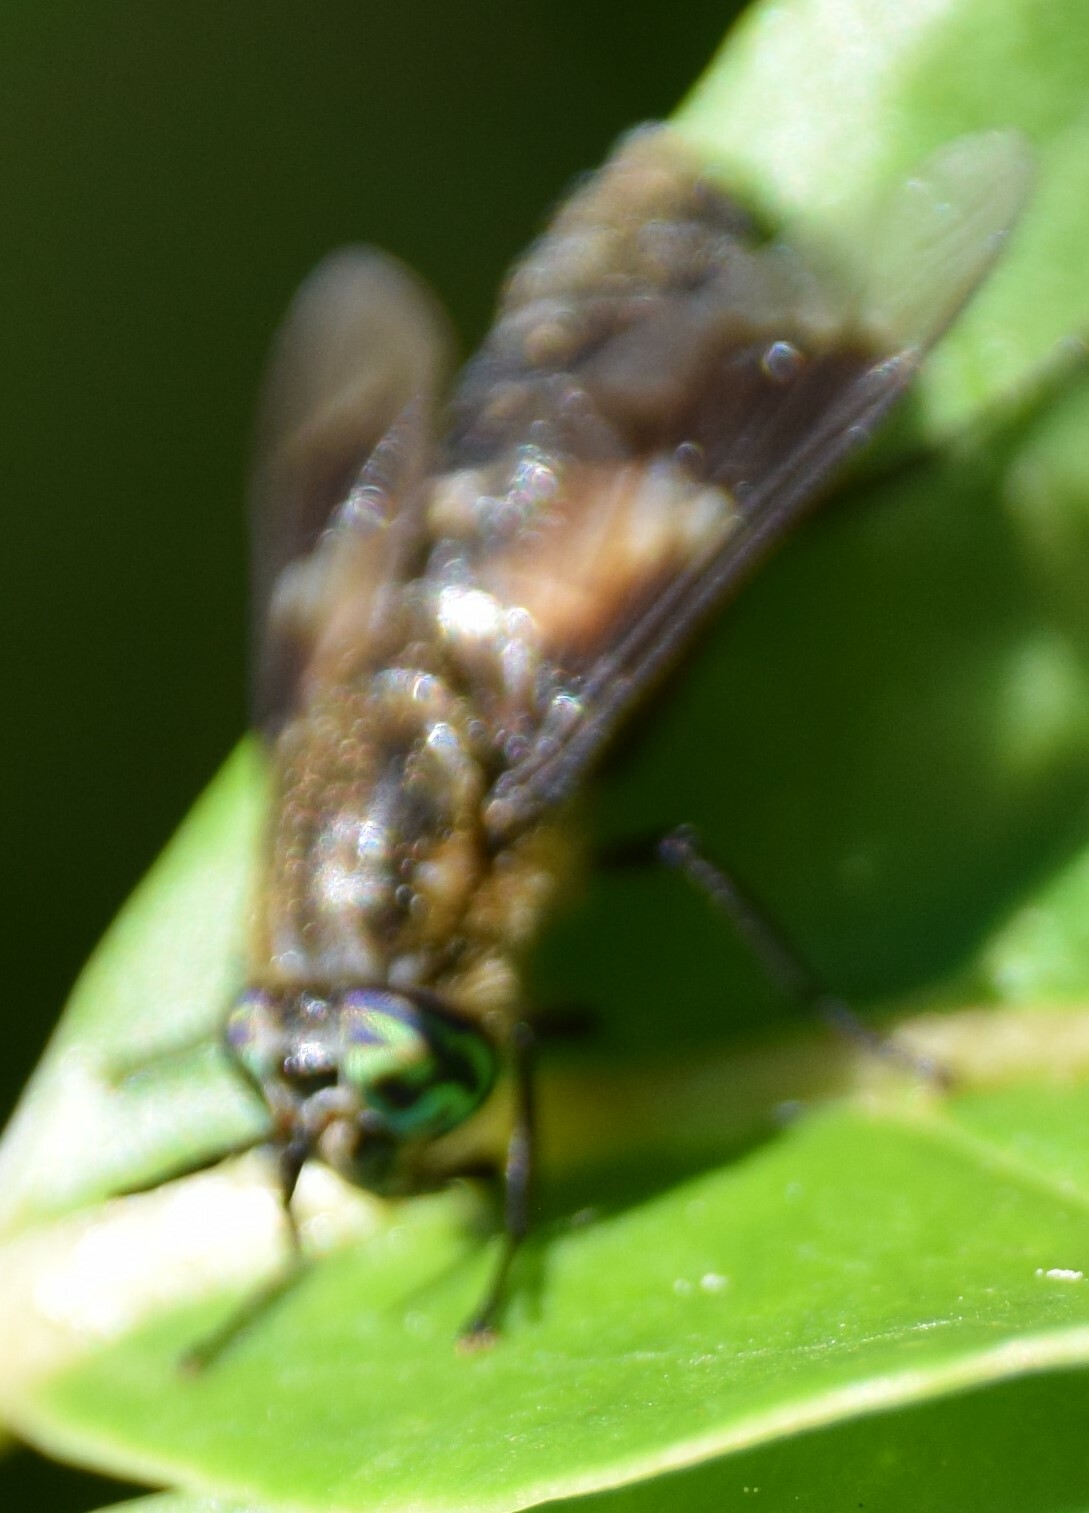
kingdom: Animalia
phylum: Arthropoda
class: Insecta
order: Diptera
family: Tabanidae
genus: Chrysops
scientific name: Chrysops excitans
